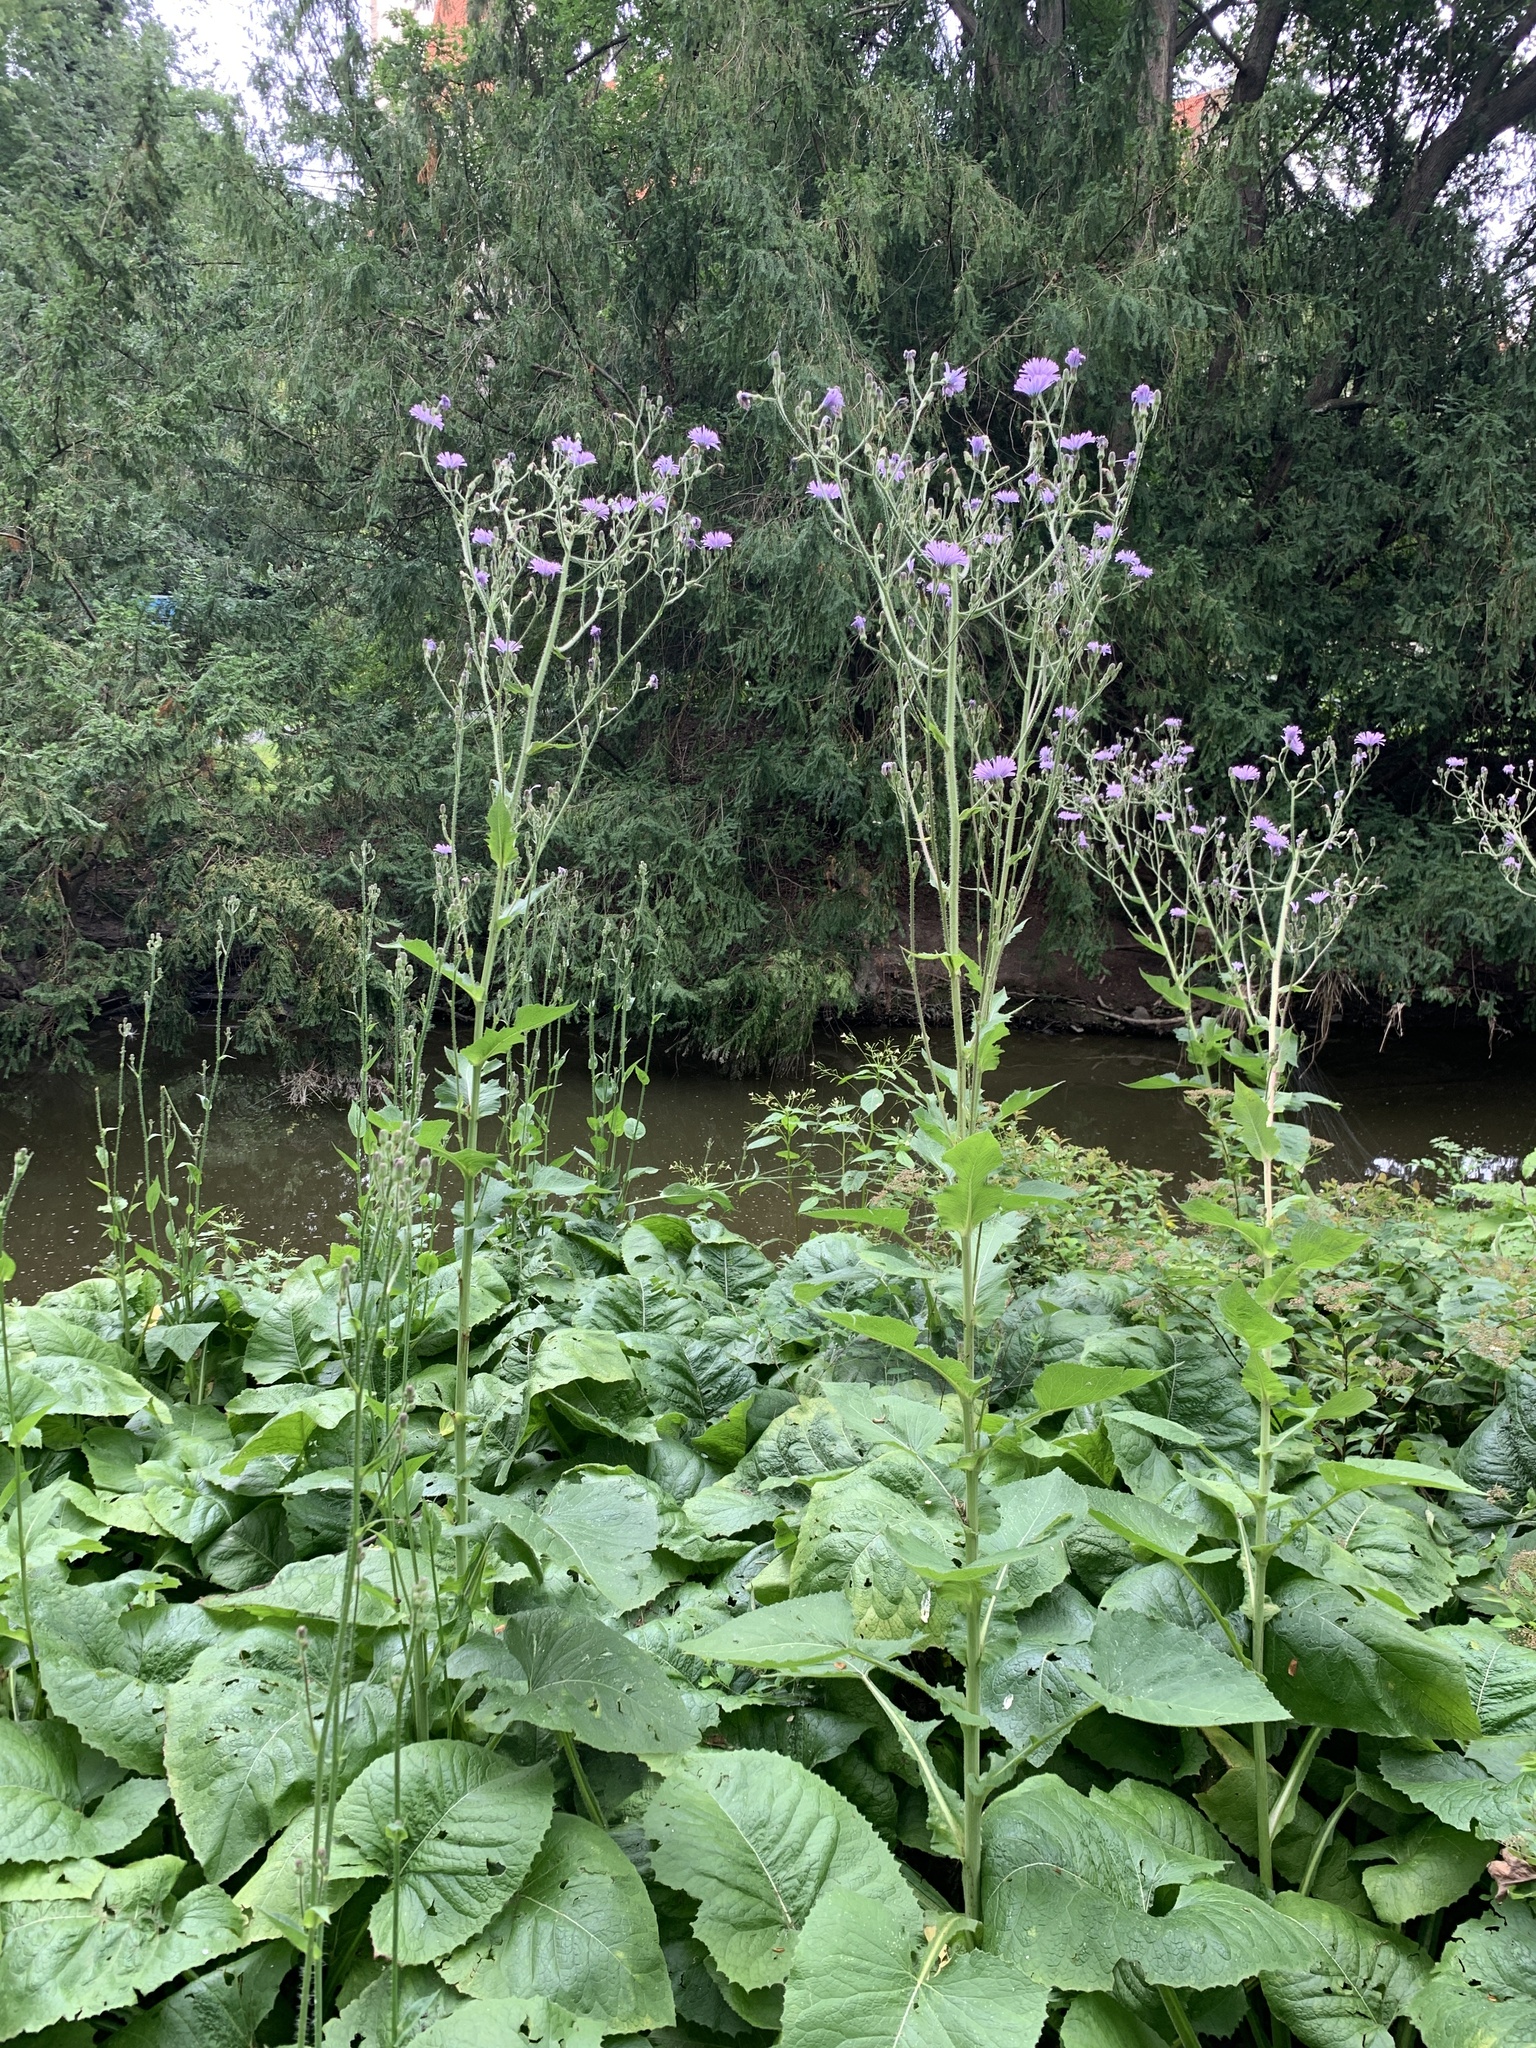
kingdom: Plantae
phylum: Tracheophyta
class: Magnoliopsida
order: Asterales
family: Asteraceae
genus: Lactuca
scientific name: Lactuca macrophylla
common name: Common blue-sow-thistle
